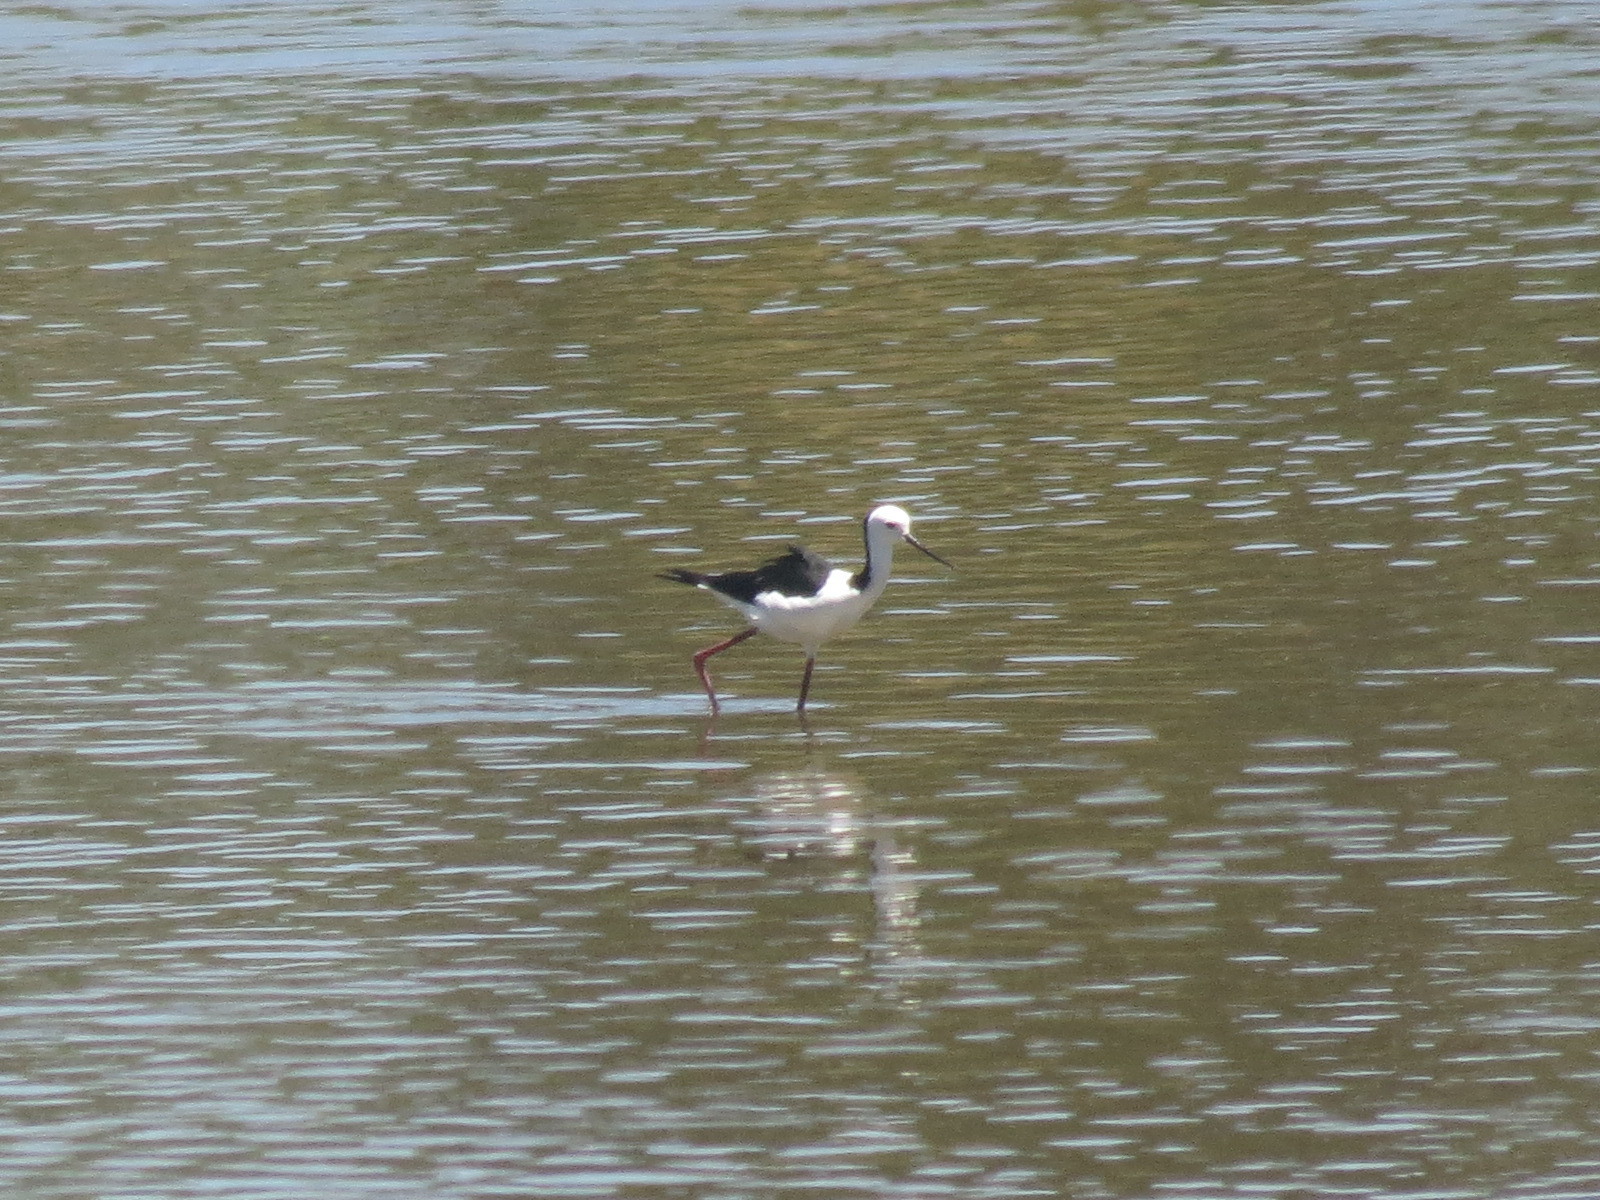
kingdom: Animalia
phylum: Chordata
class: Aves
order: Charadriiformes
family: Recurvirostridae
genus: Himantopus
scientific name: Himantopus leucocephalus
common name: White-headed stilt
